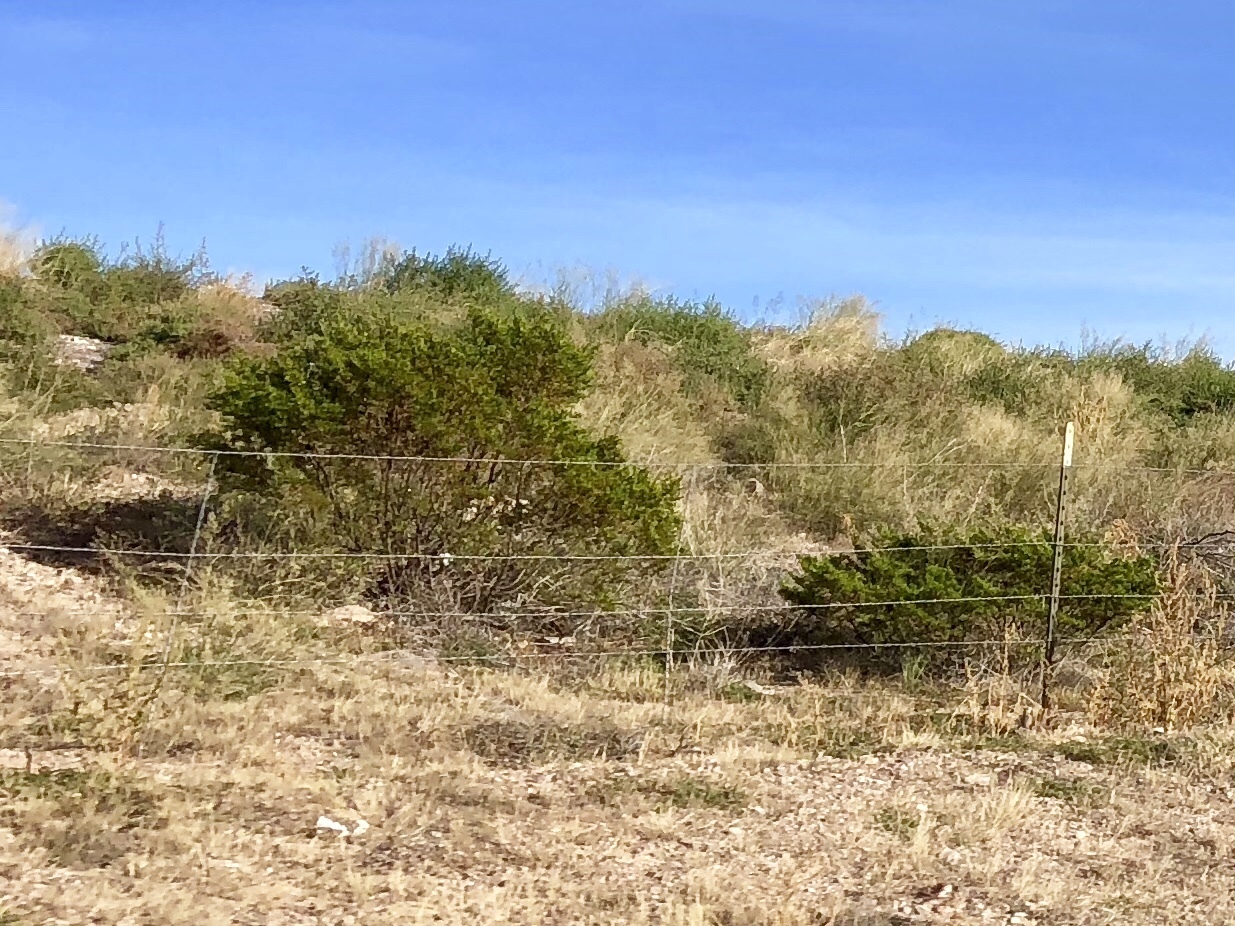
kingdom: Plantae
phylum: Tracheophyta
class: Magnoliopsida
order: Zygophyllales
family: Zygophyllaceae
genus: Larrea
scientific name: Larrea tridentata
